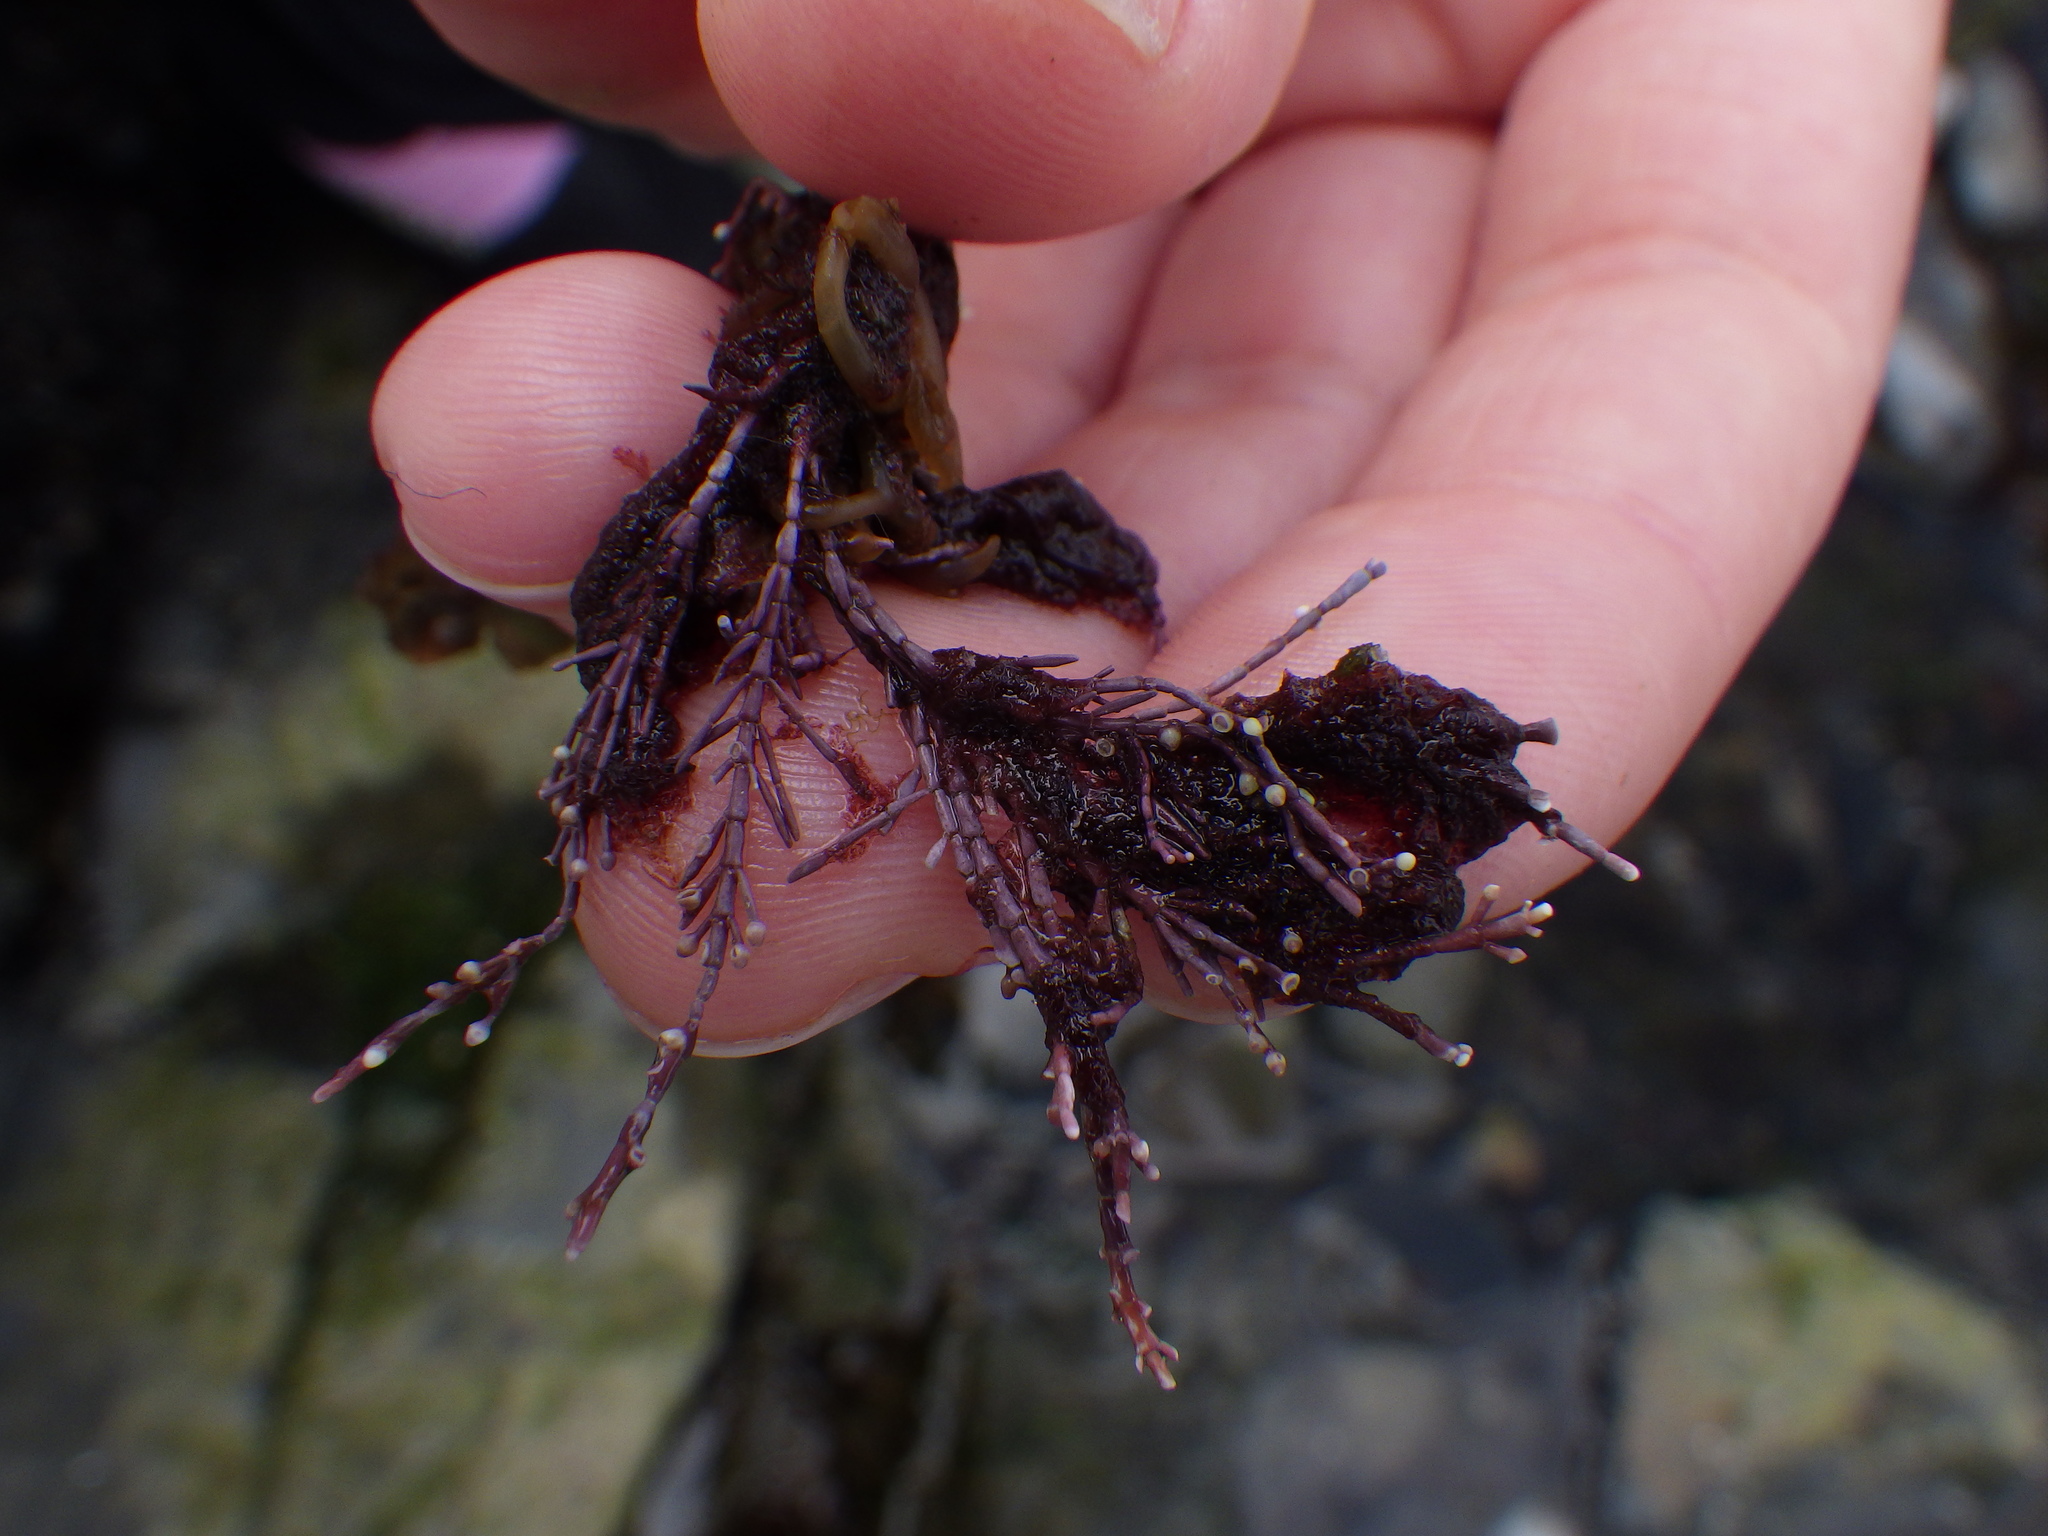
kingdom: Plantae
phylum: Rhodophyta
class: Florideophyceae
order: Corallinales
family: Corallinaceae
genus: Corallina
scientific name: Corallina officinalis
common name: Coral weed
